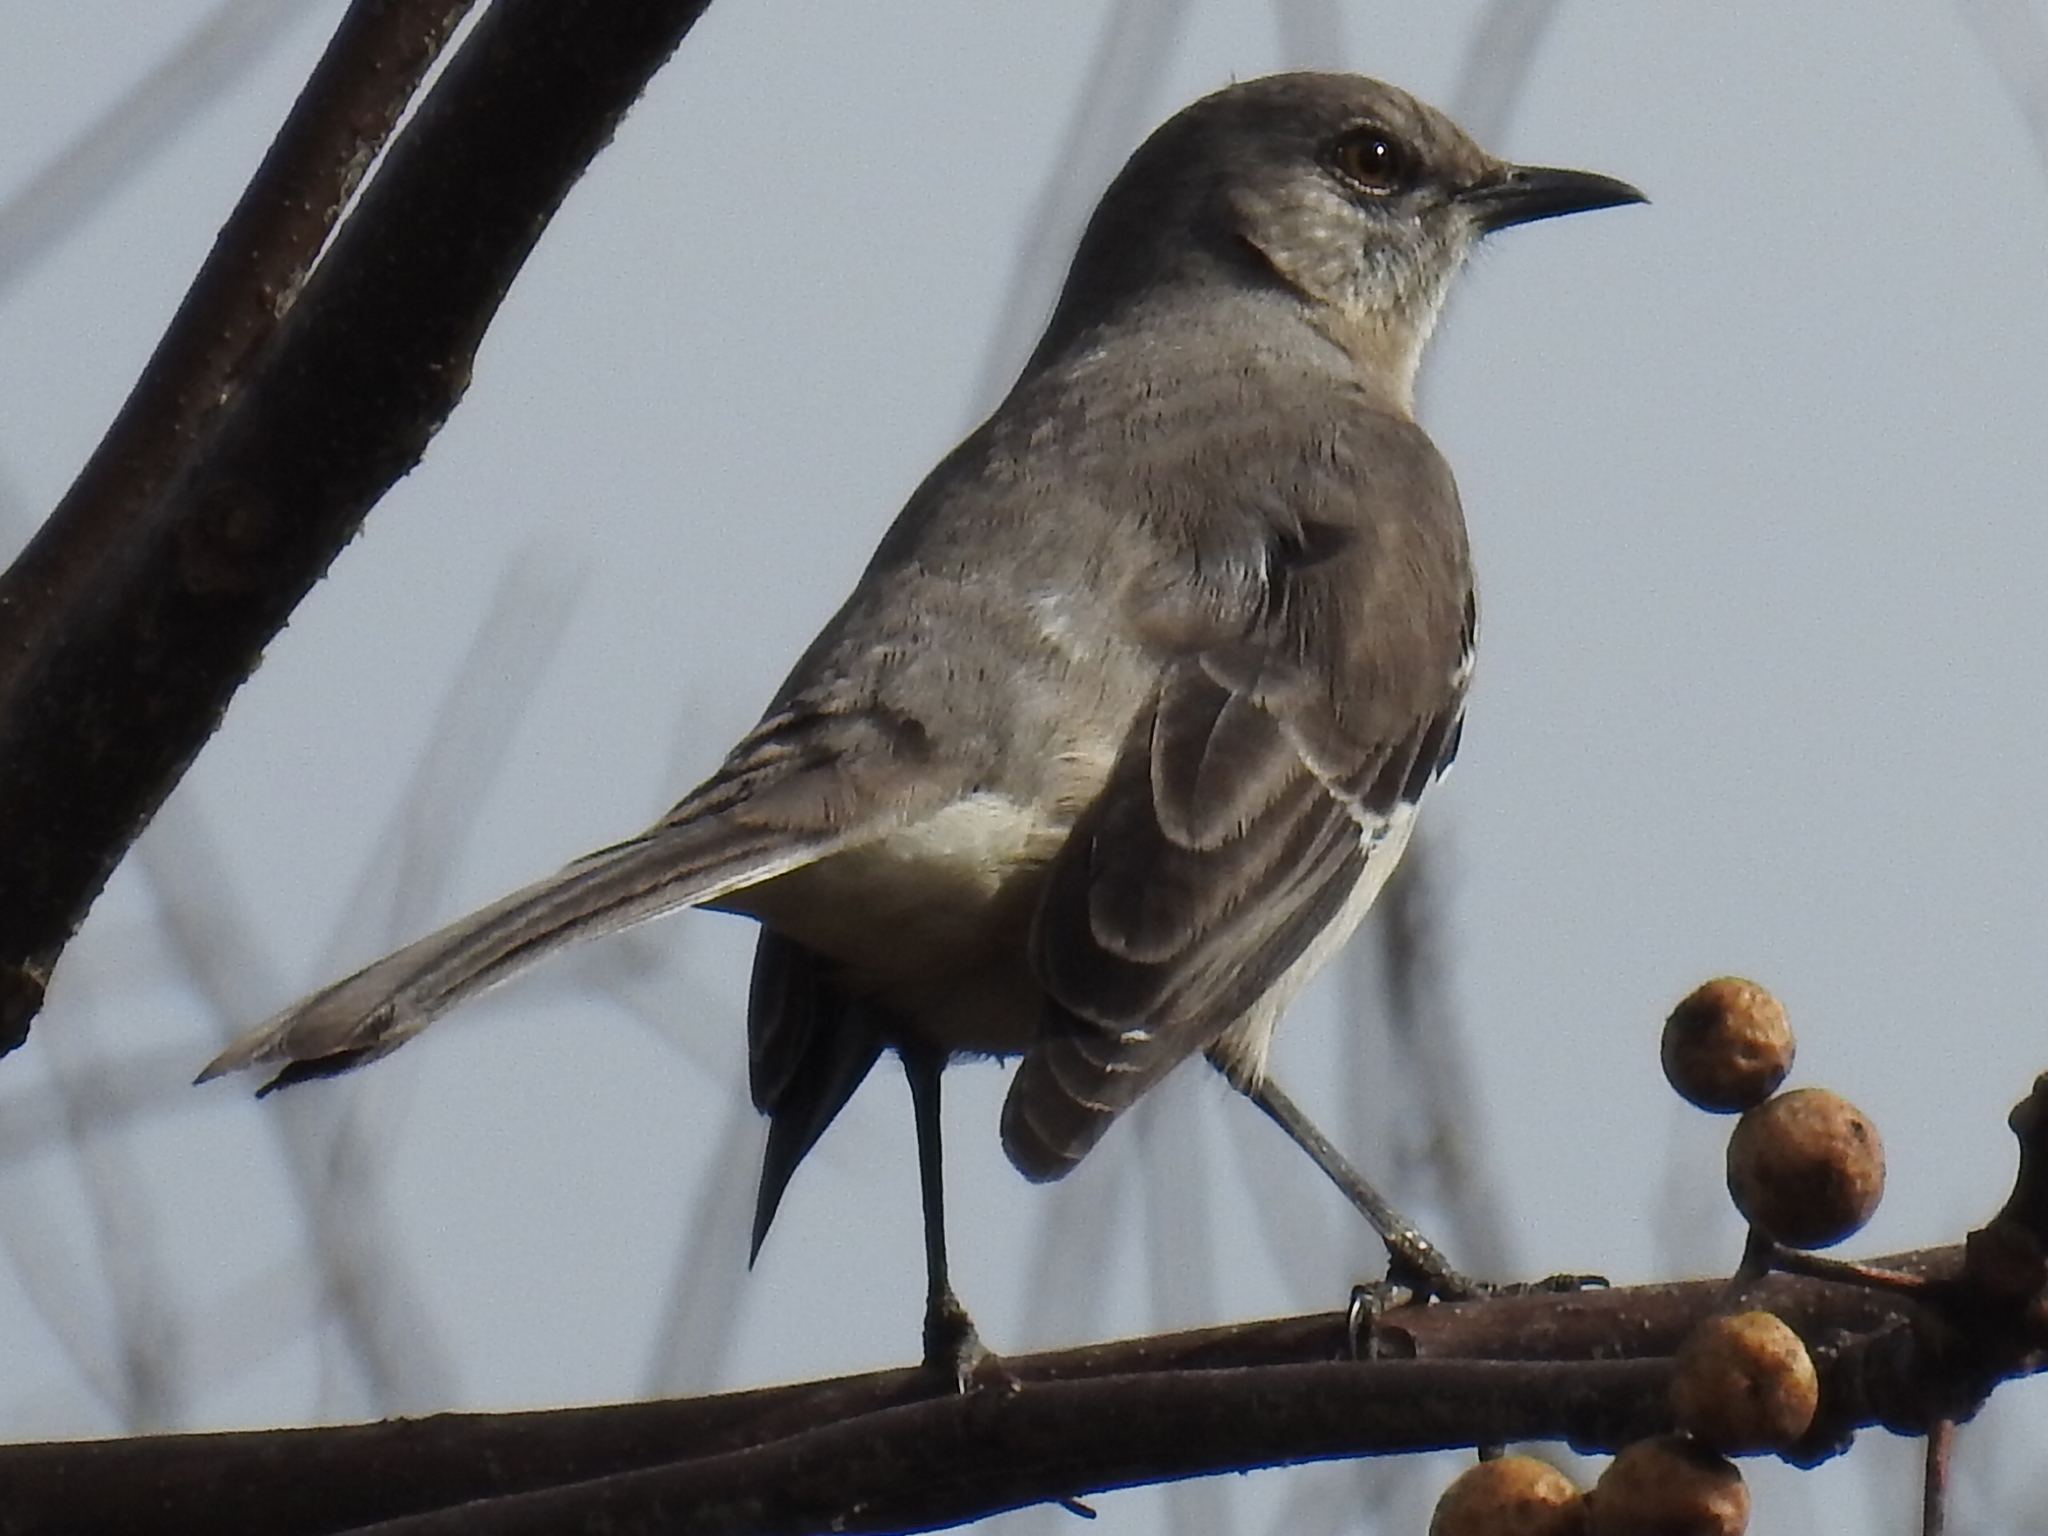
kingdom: Animalia
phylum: Chordata
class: Aves
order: Passeriformes
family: Mimidae
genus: Mimus
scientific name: Mimus polyglottos
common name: Northern mockingbird
